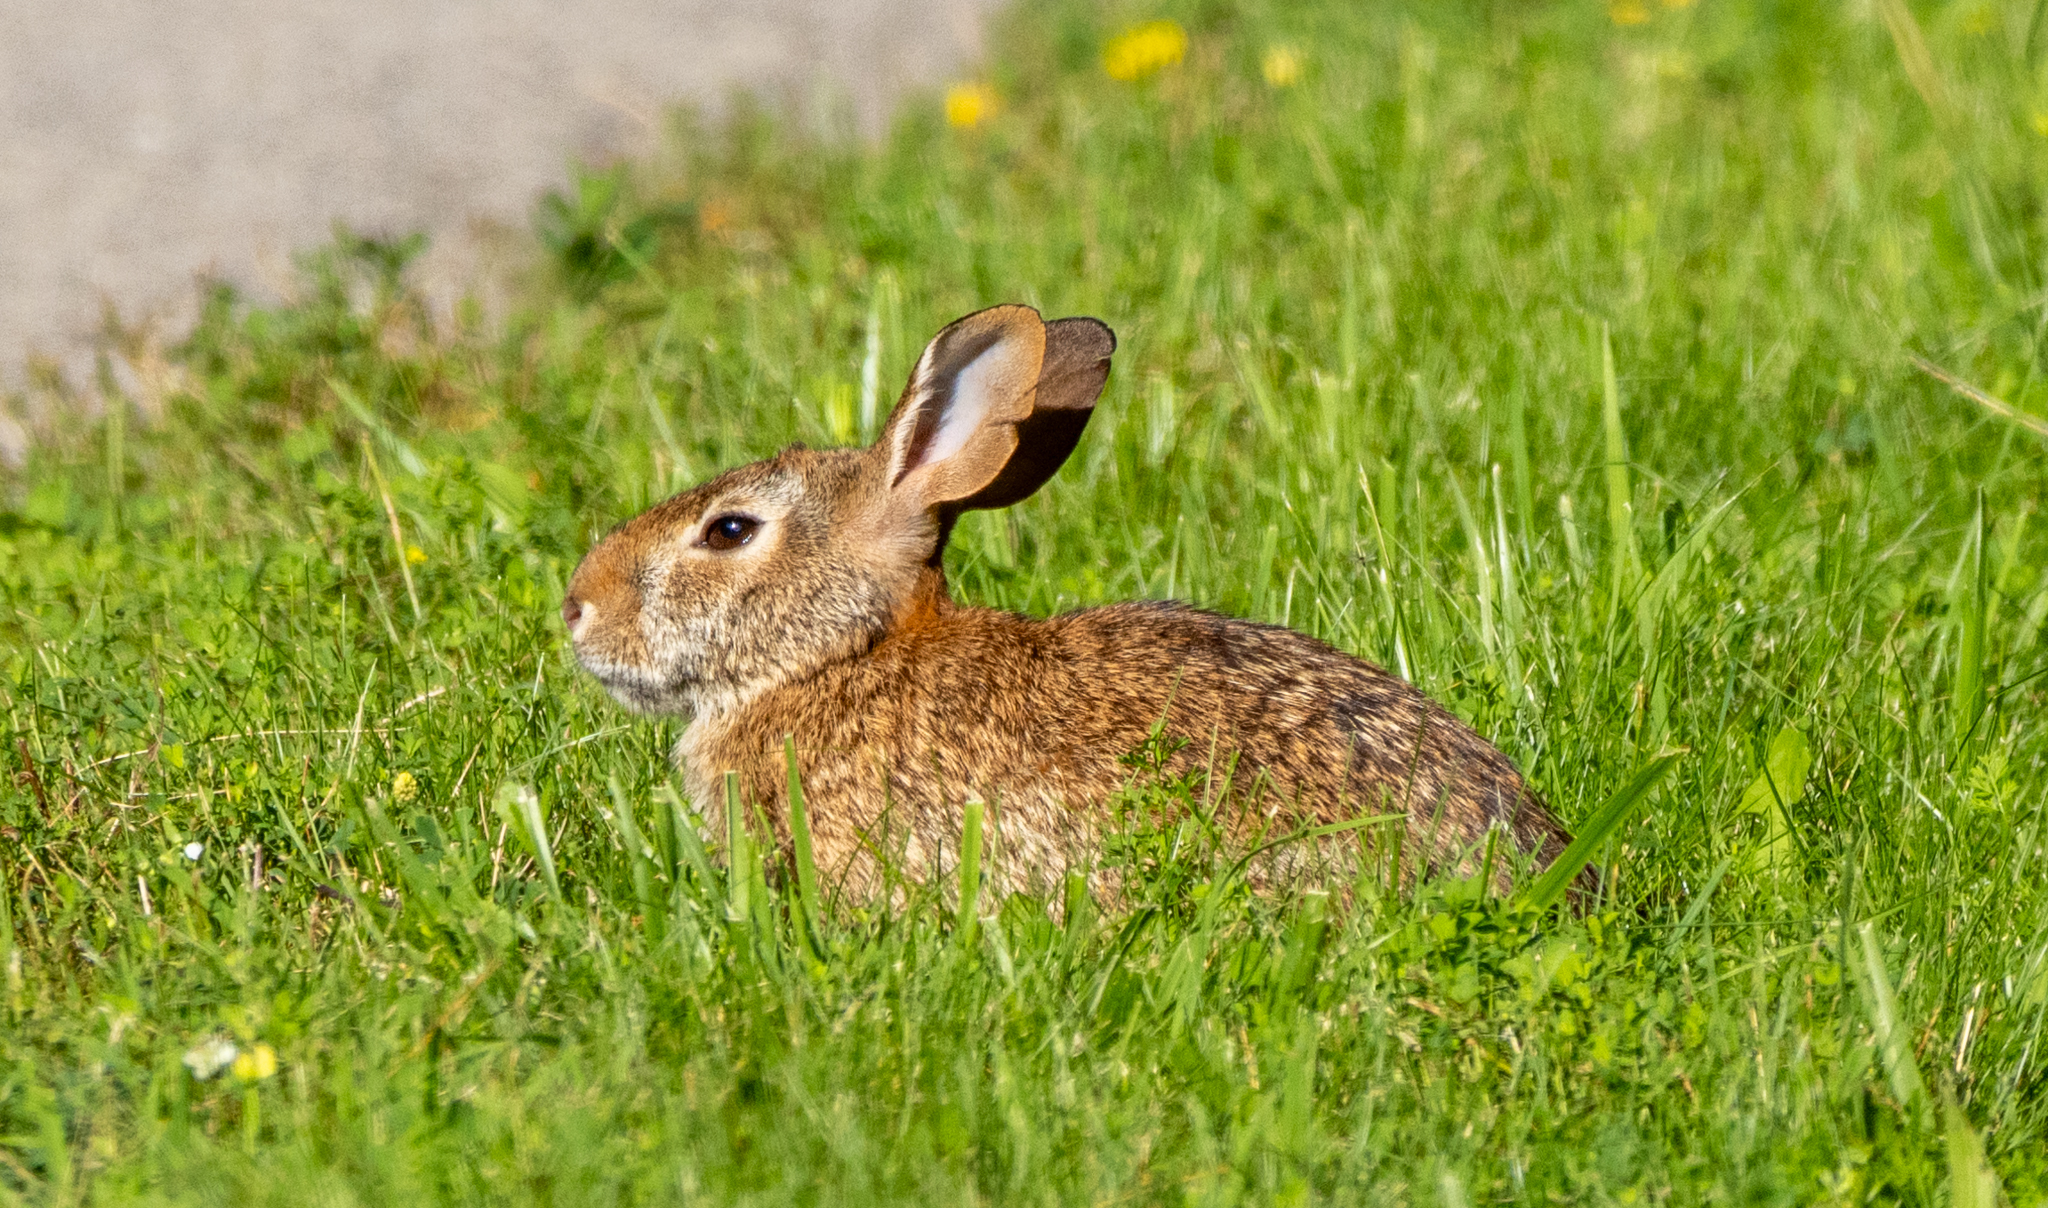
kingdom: Animalia
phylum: Chordata
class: Mammalia
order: Lagomorpha
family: Leporidae
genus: Sylvilagus
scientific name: Sylvilagus floridanus
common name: Eastern cottontail
